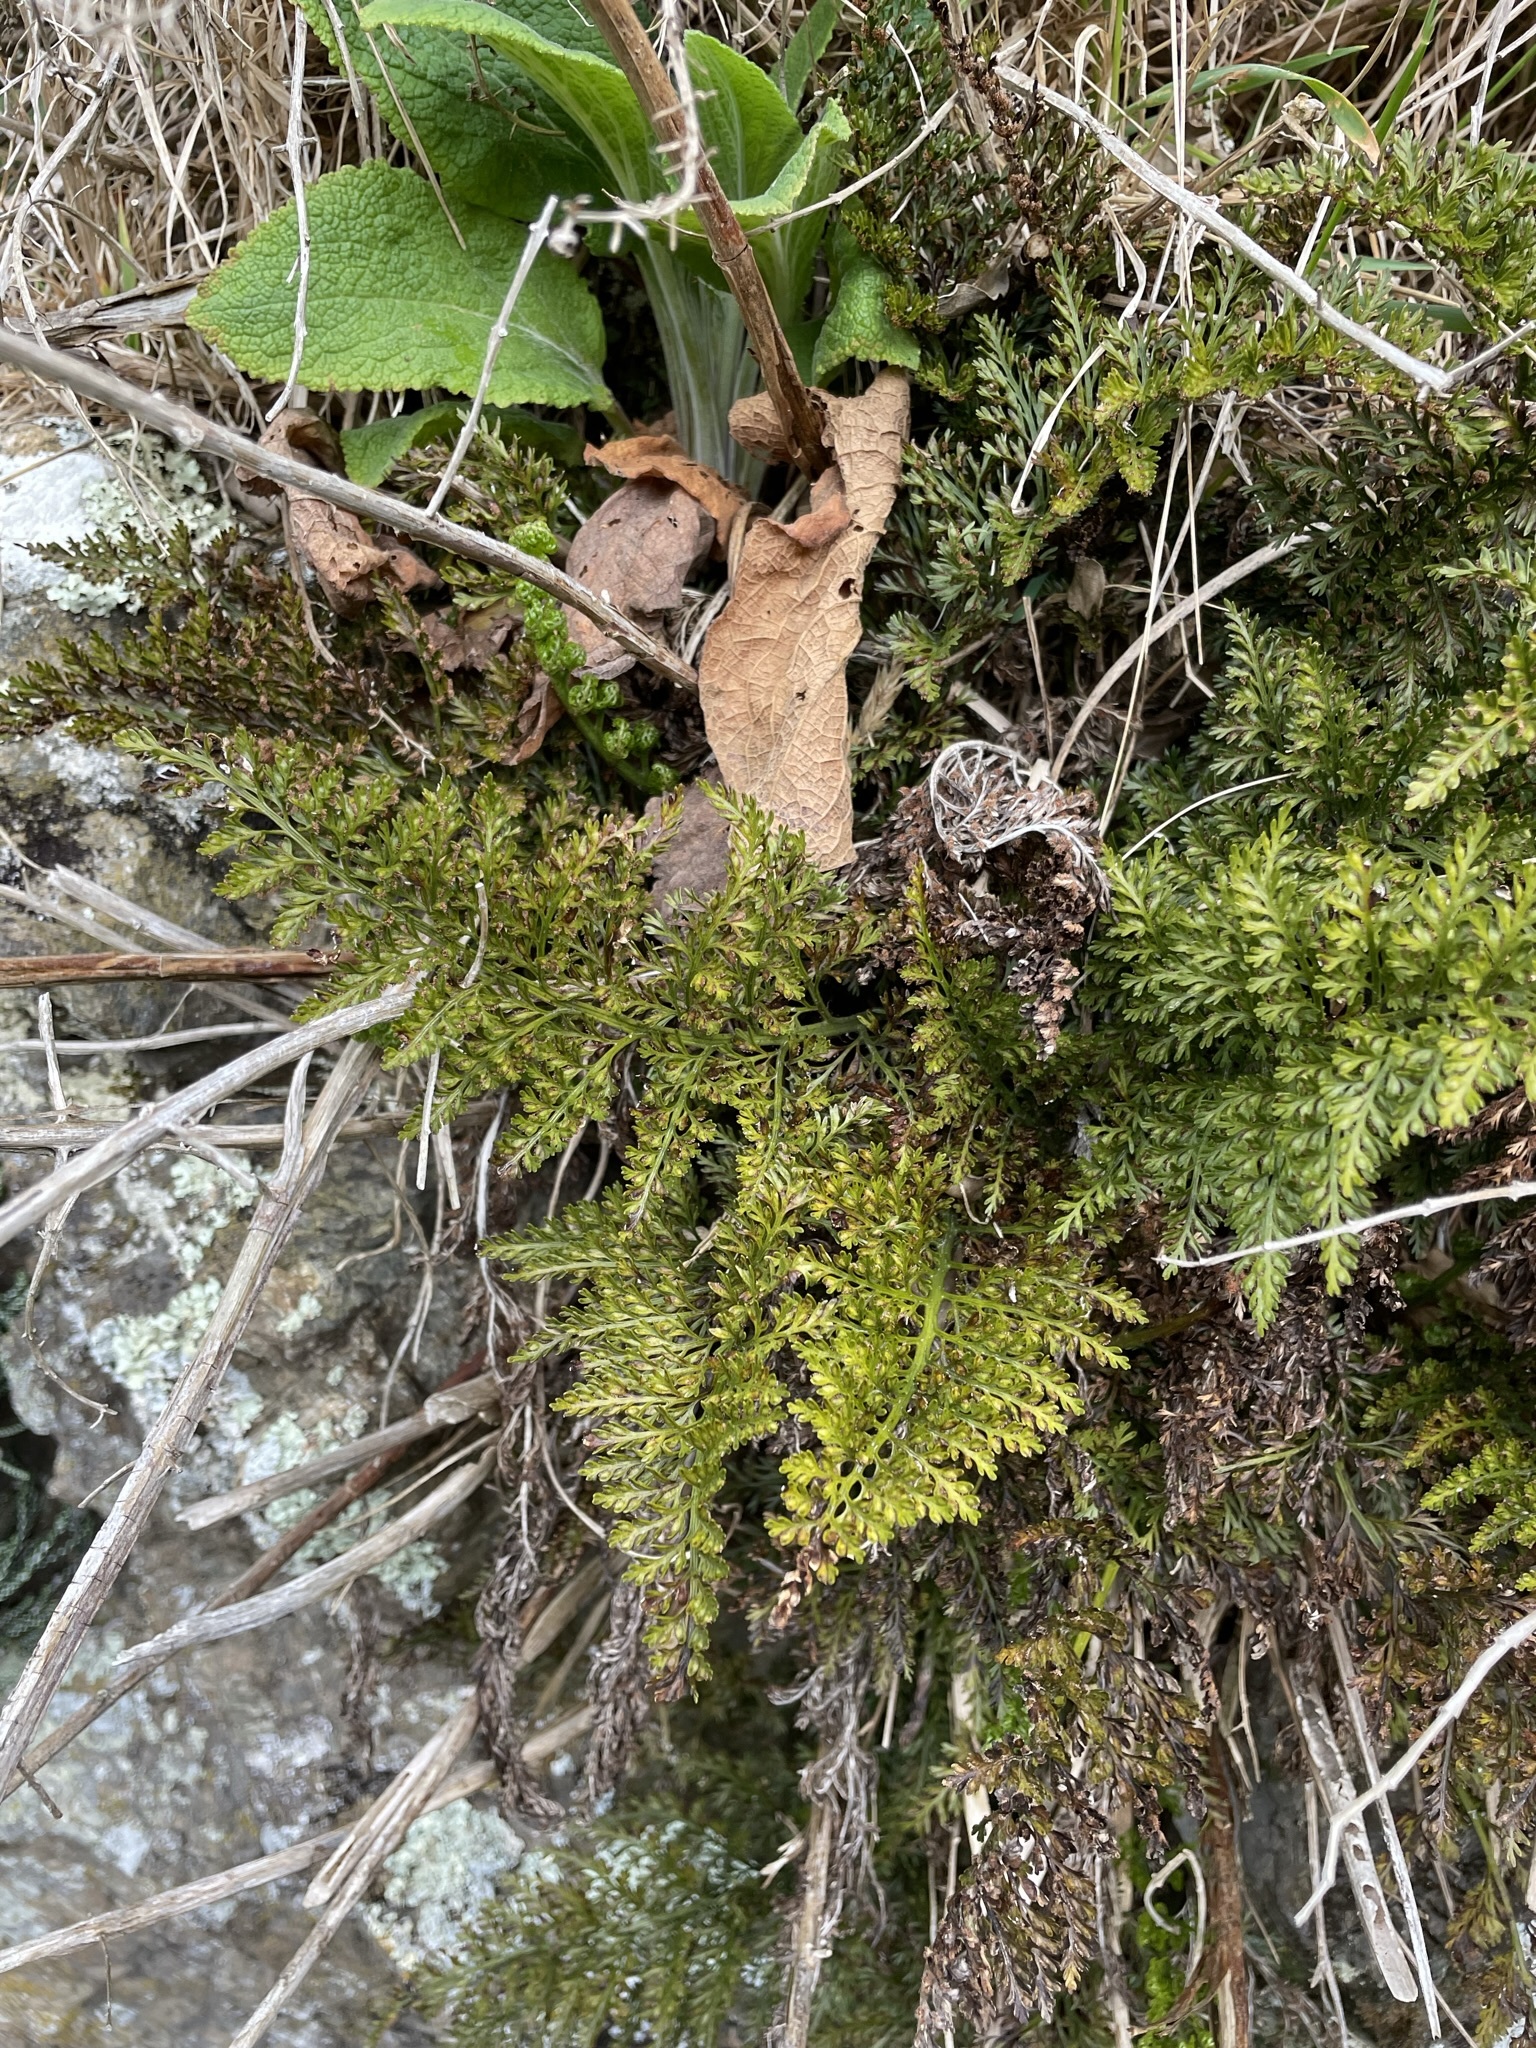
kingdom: Plantae
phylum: Tracheophyta
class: Polypodiopsida
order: Polypodiales
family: Aspleniaceae
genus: Asplenium
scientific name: Asplenium richardii
